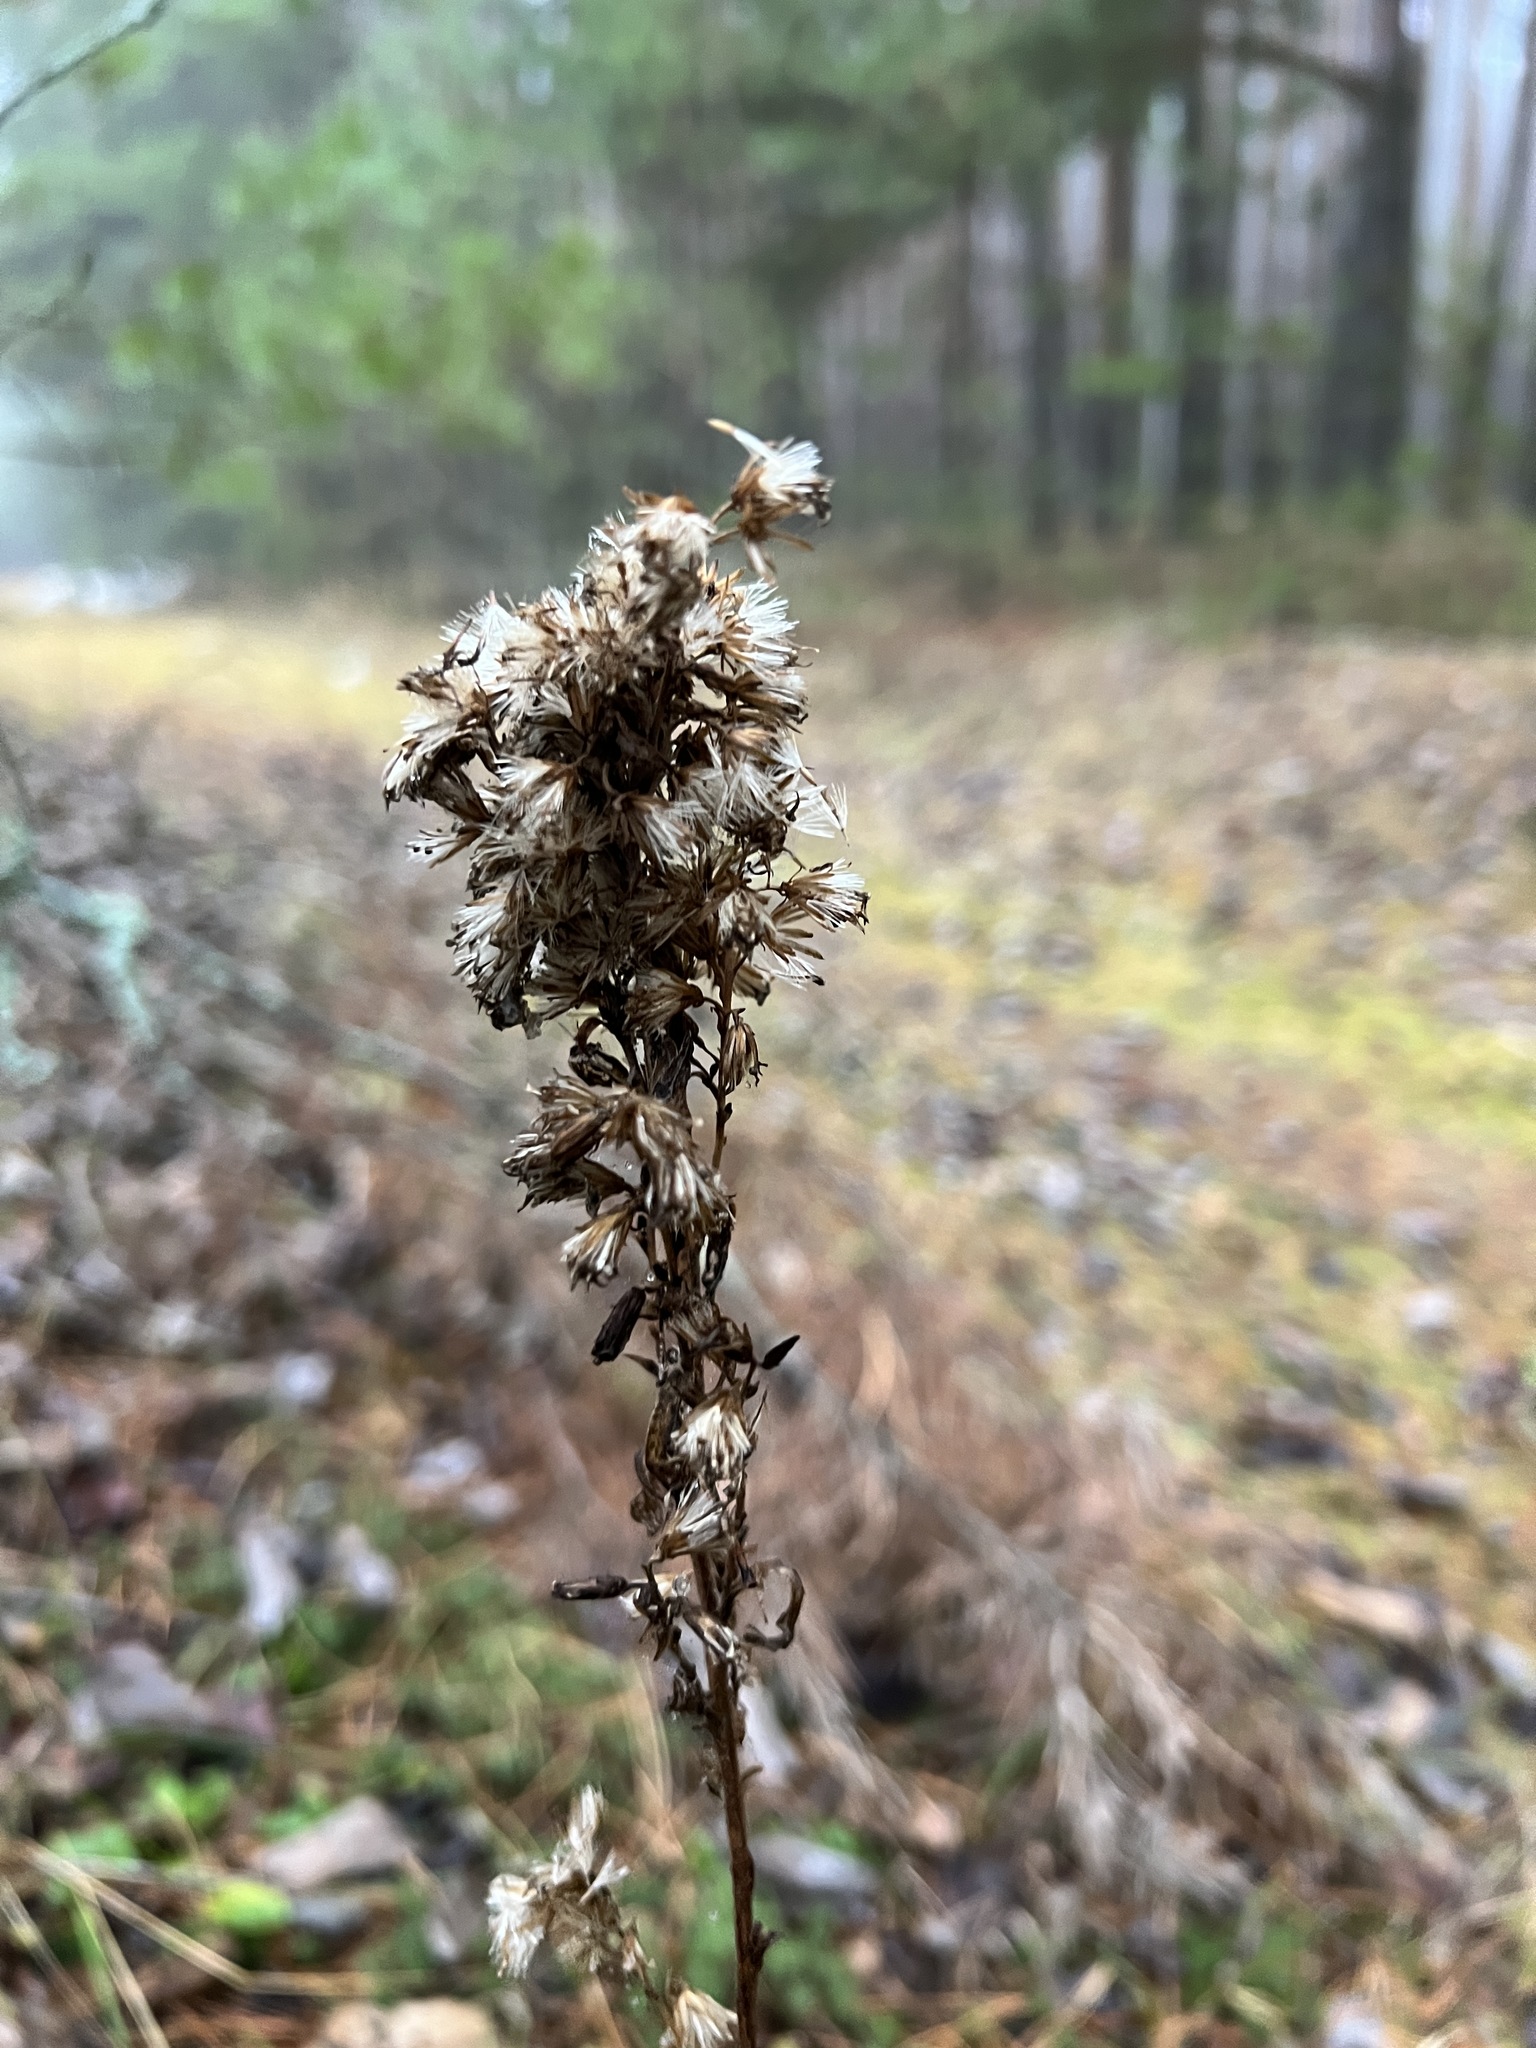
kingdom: Plantae
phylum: Tracheophyta
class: Magnoliopsida
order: Asterales
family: Asteraceae
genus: Solidago
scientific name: Solidago virgaurea
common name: Goldenrod
